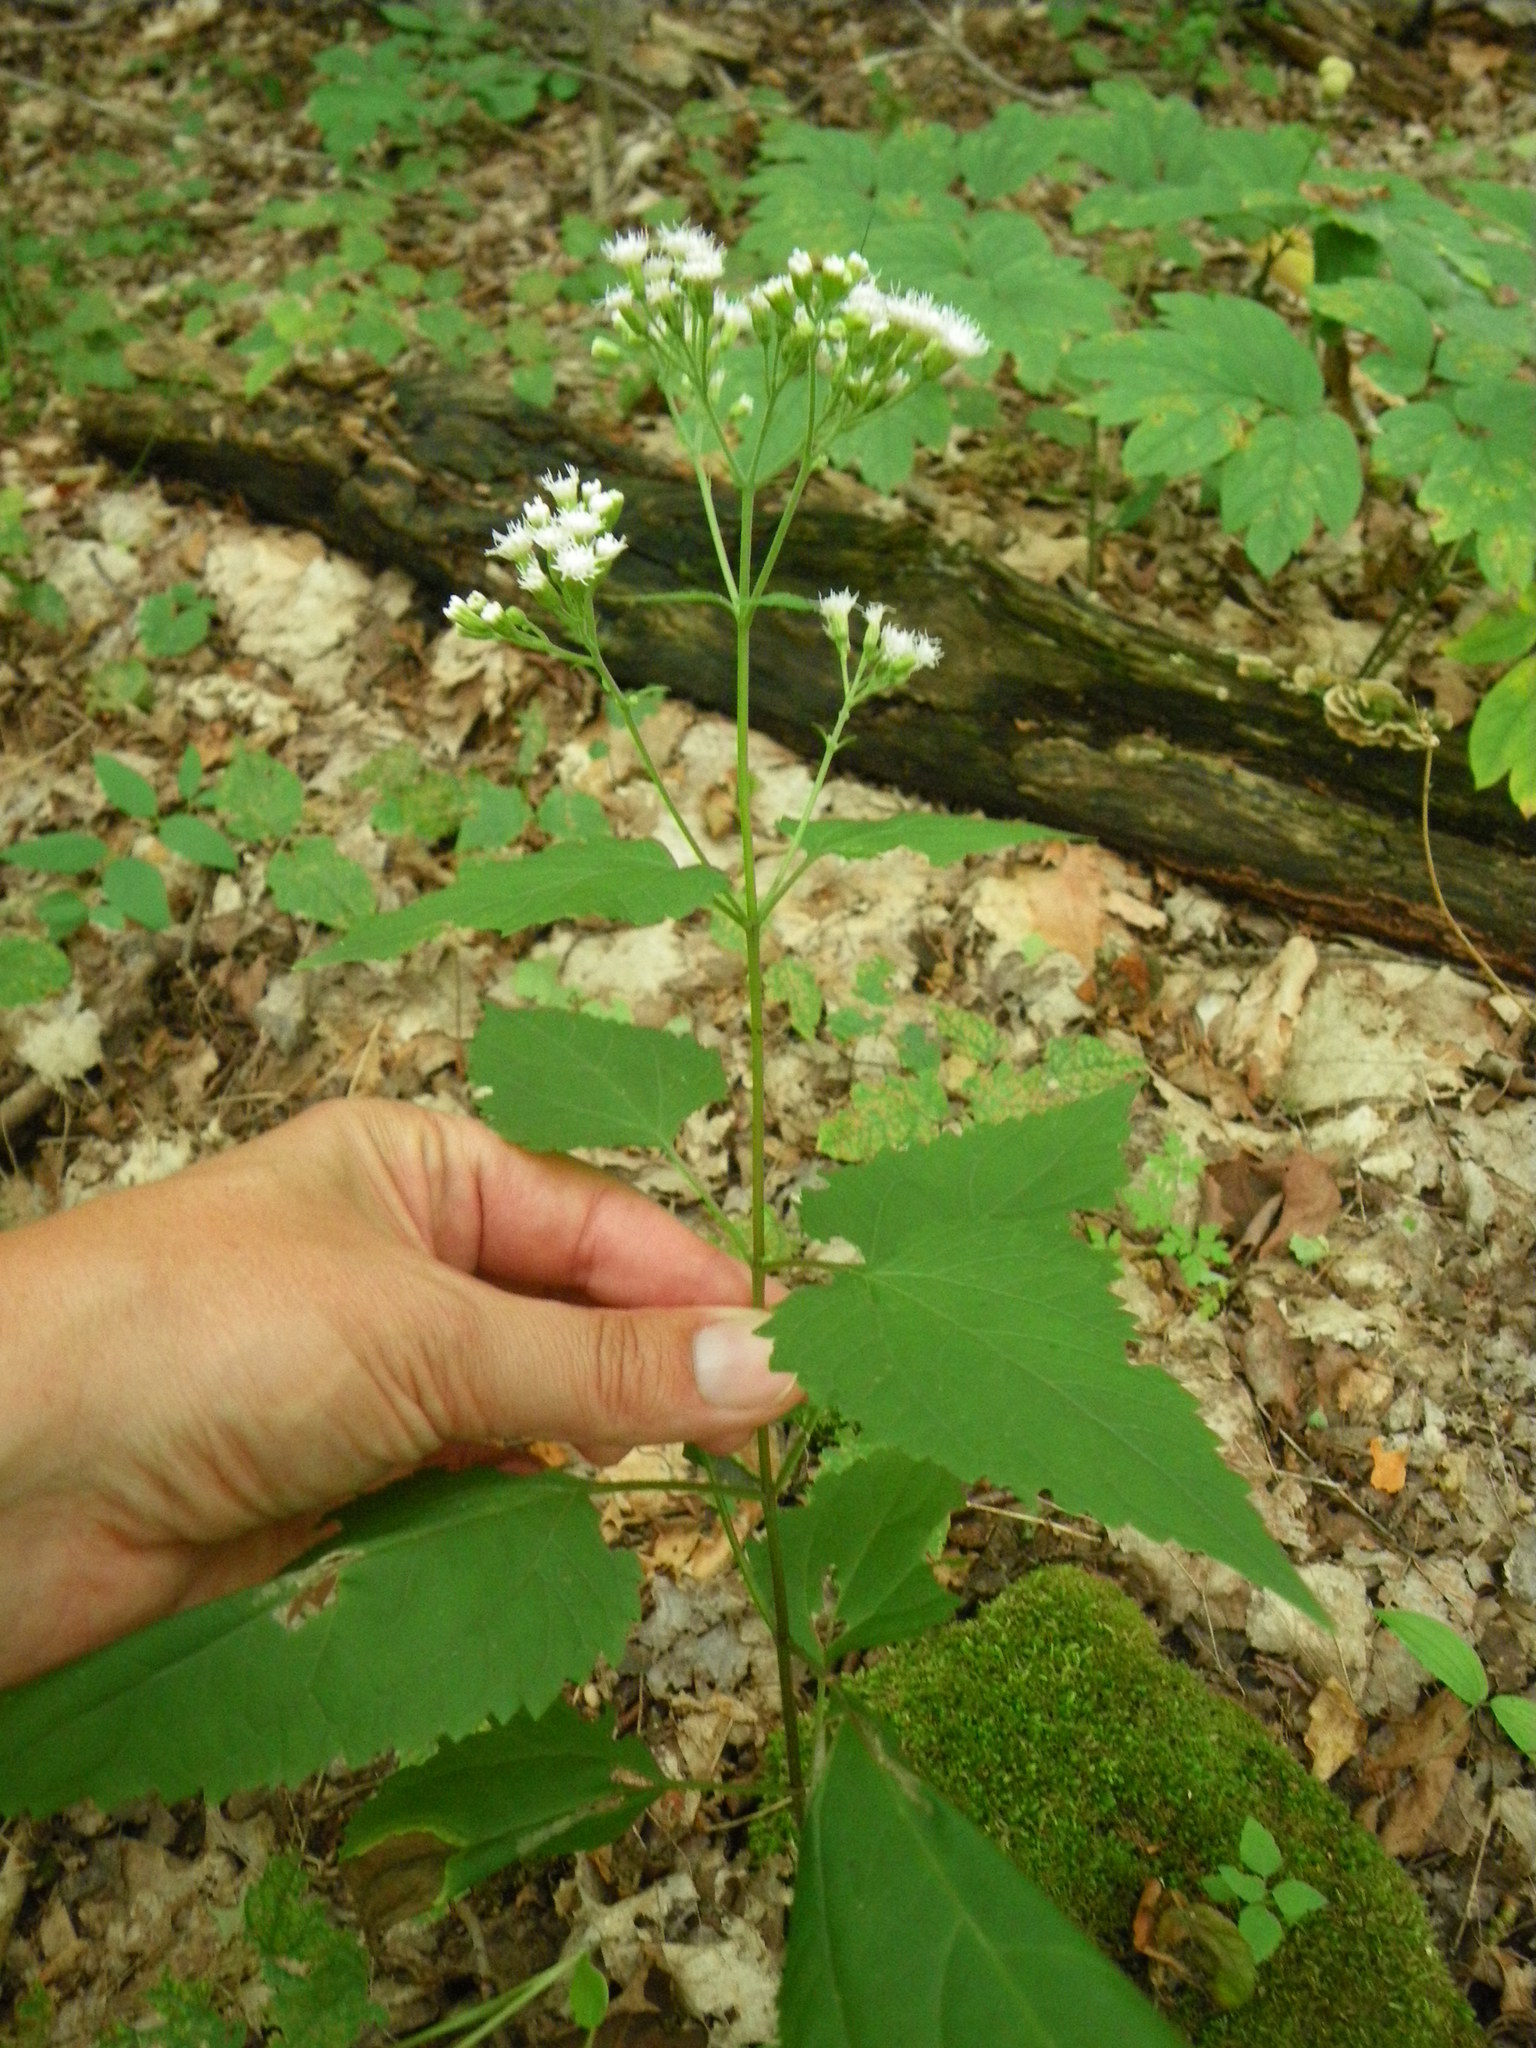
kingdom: Plantae
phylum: Tracheophyta
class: Magnoliopsida
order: Asterales
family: Asteraceae
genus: Ageratina
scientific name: Ageratina altissima
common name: White snakeroot
